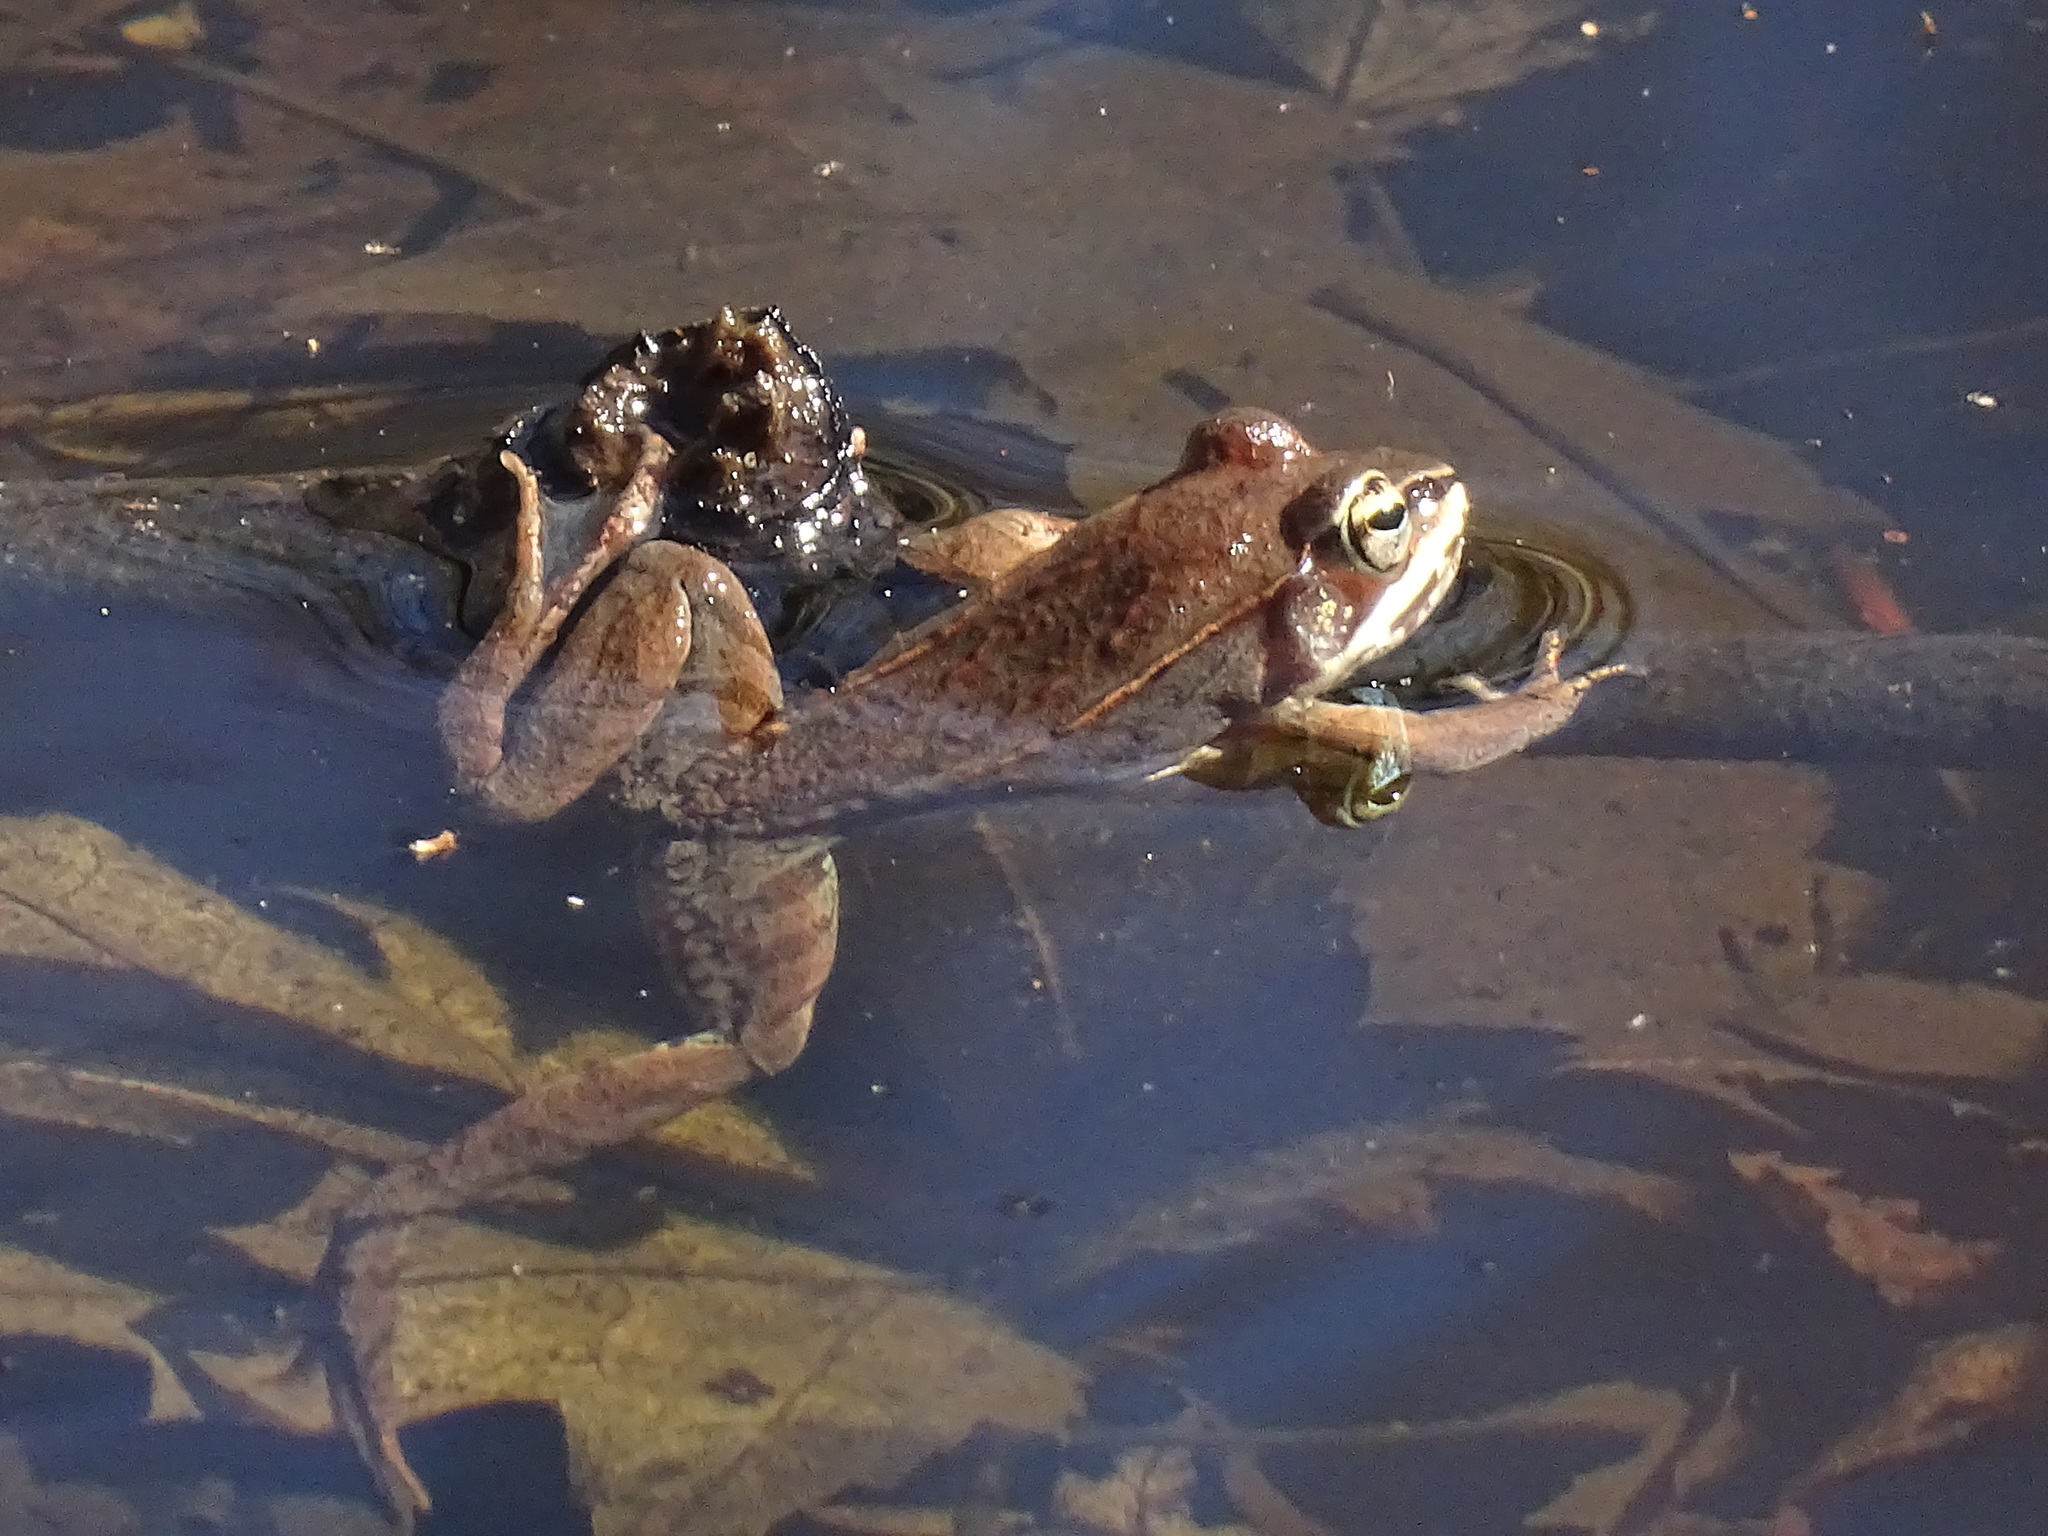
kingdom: Animalia
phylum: Chordata
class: Amphibia
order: Anura
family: Ranidae
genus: Lithobates
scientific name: Lithobates sylvaticus
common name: Wood frog
